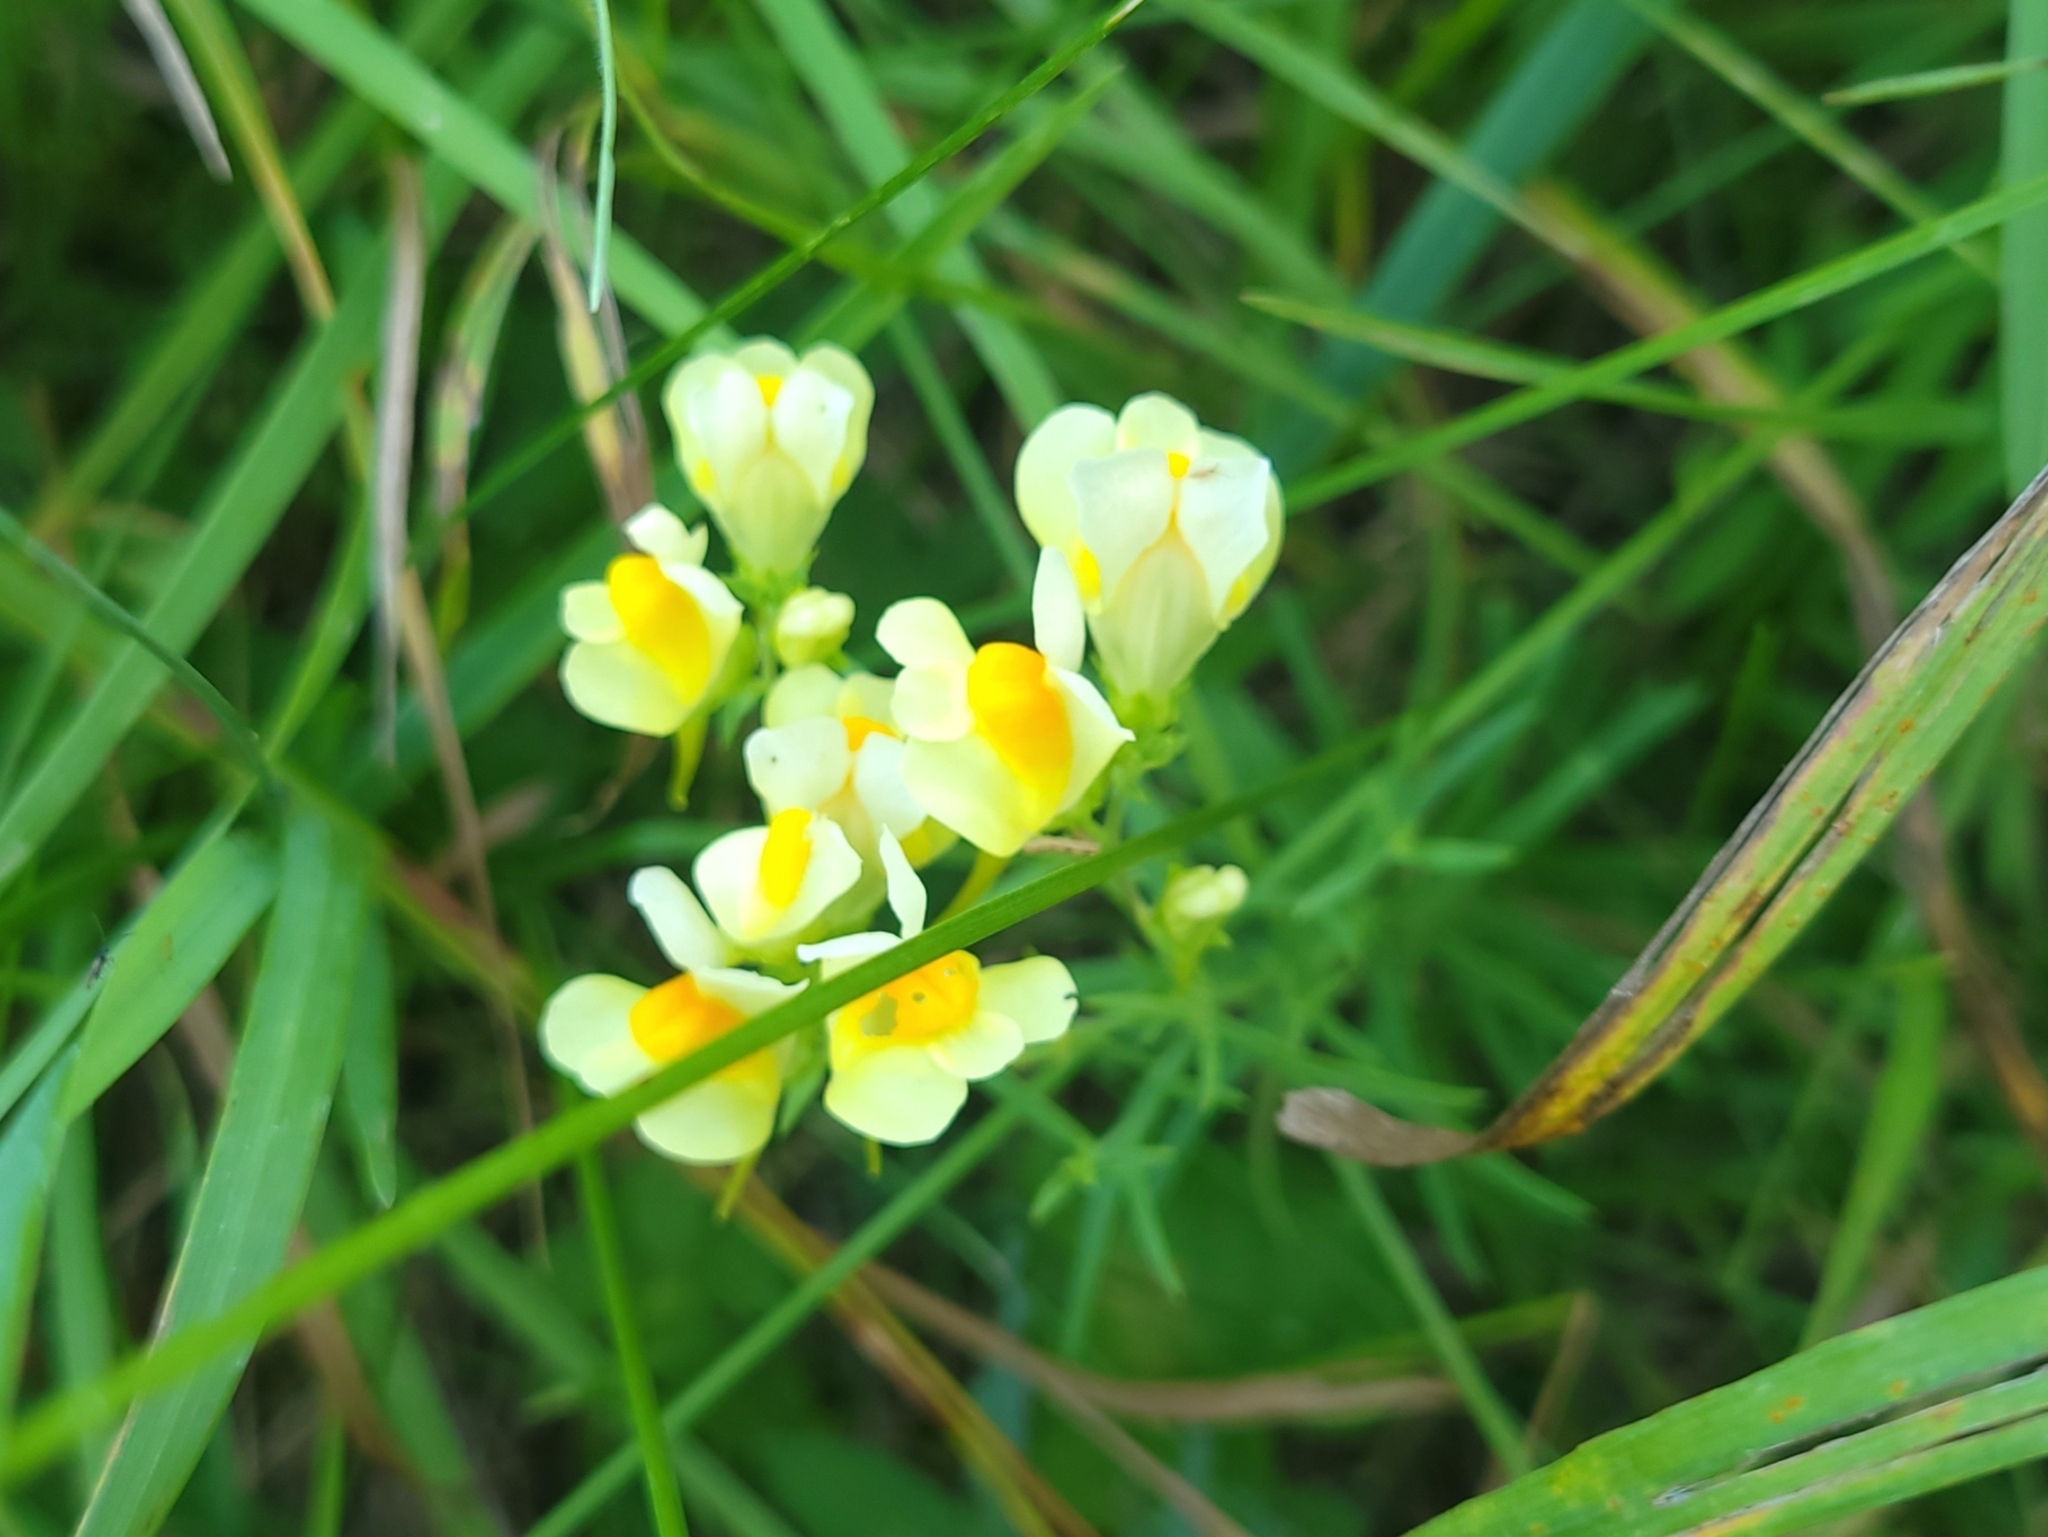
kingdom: Plantae
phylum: Tracheophyta
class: Magnoliopsida
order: Lamiales
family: Plantaginaceae
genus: Linaria
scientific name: Linaria vulgaris
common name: Butter and eggs
